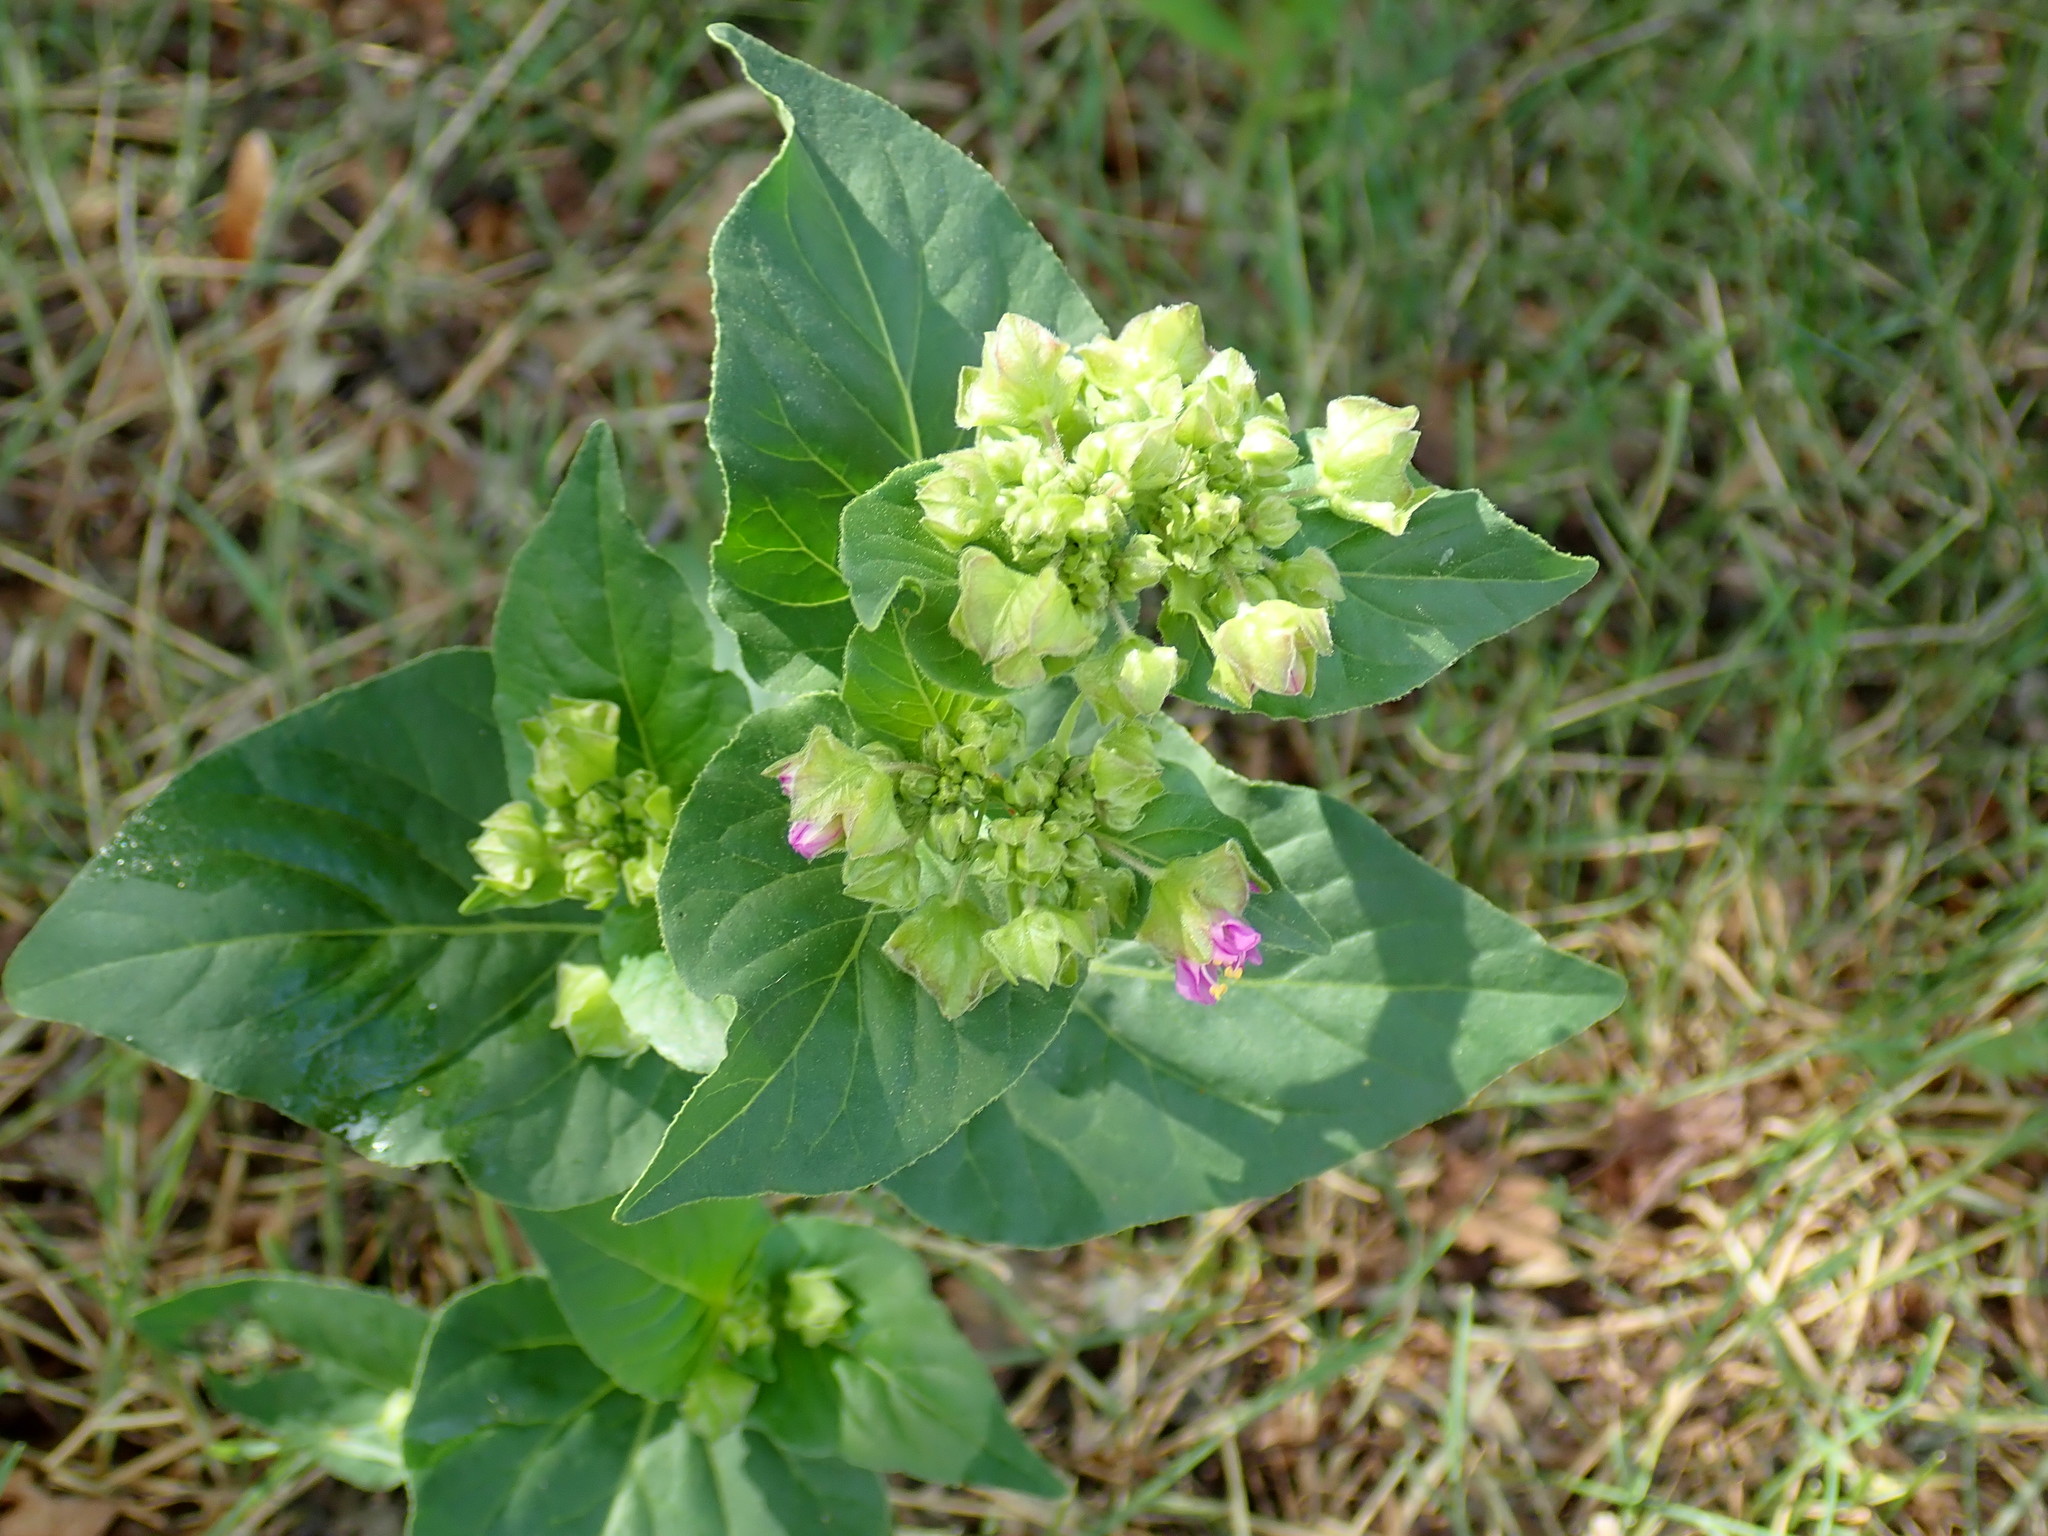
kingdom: Plantae
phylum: Tracheophyta
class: Magnoliopsida
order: Caryophyllales
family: Nyctaginaceae
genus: Mirabilis
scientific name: Mirabilis nyctaginea
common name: Umbrella wort
